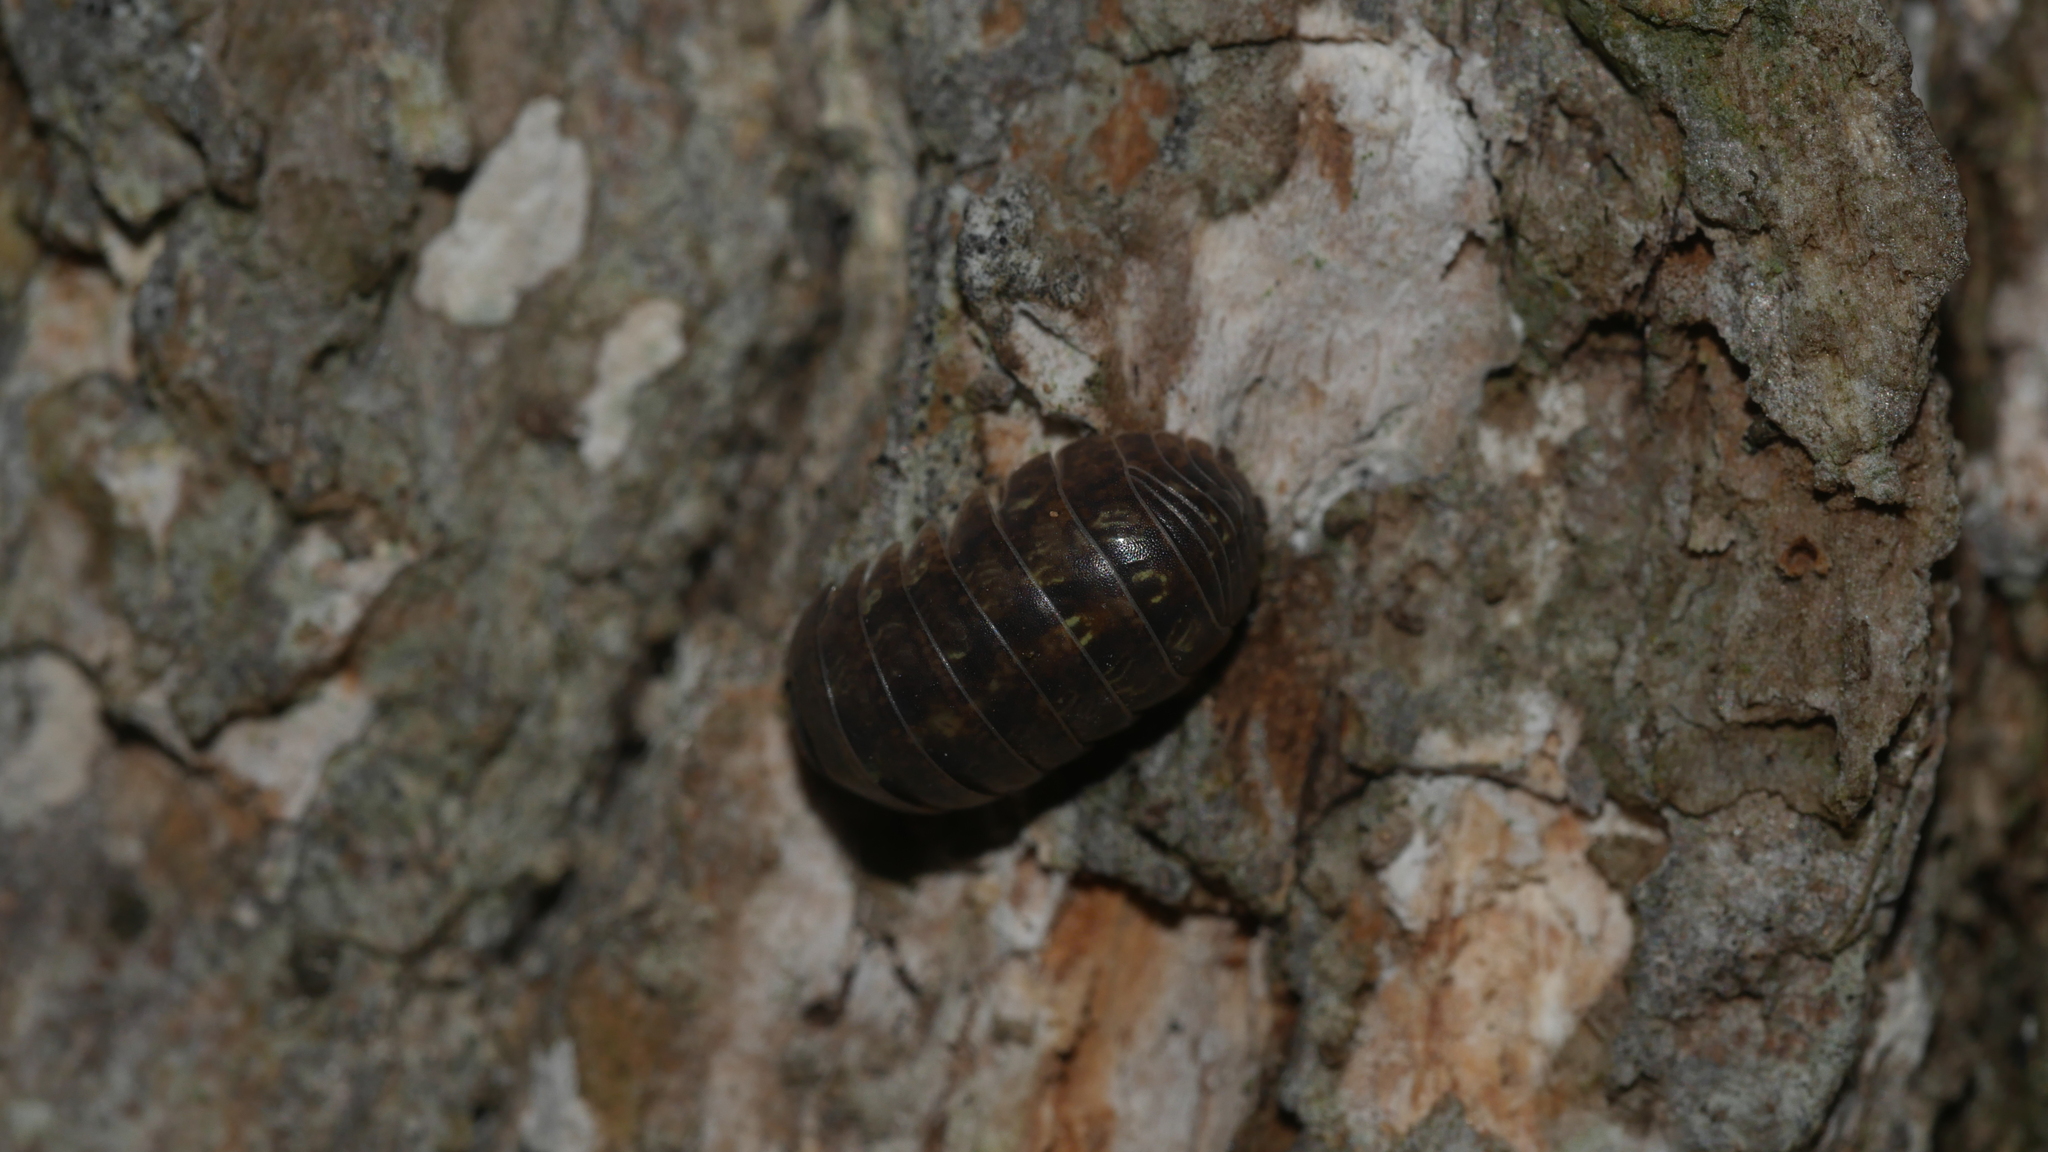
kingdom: Animalia
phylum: Arthropoda
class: Malacostraca
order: Isopoda
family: Armadillidiidae
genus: Armadillidium
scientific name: Armadillidium vulgare
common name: Common pill woodlouse
